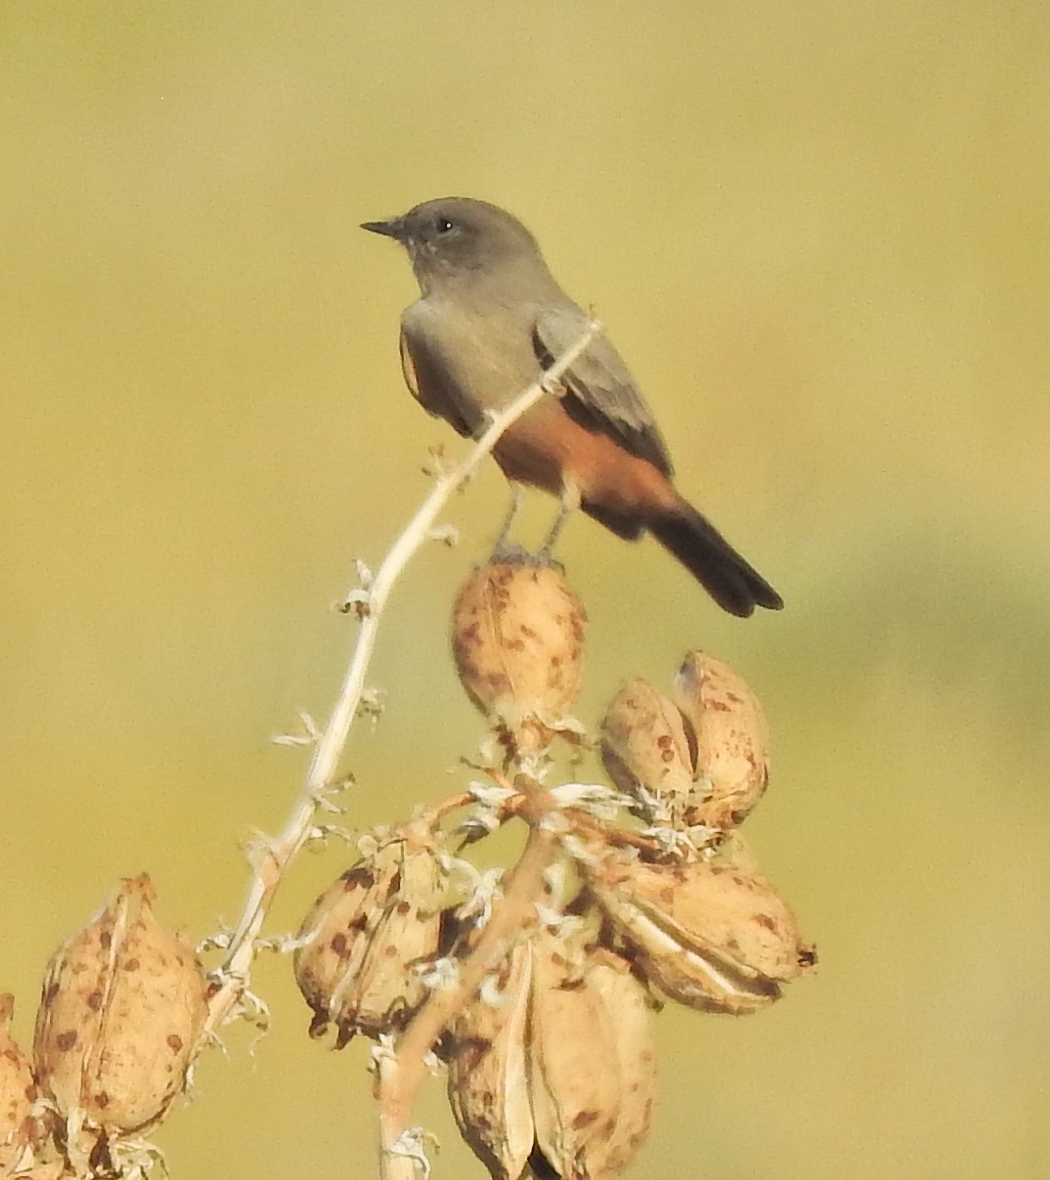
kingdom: Animalia
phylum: Chordata
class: Aves
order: Passeriformes
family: Tyrannidae
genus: Sayornis
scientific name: Sayornis saya
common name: Say's phoebe
